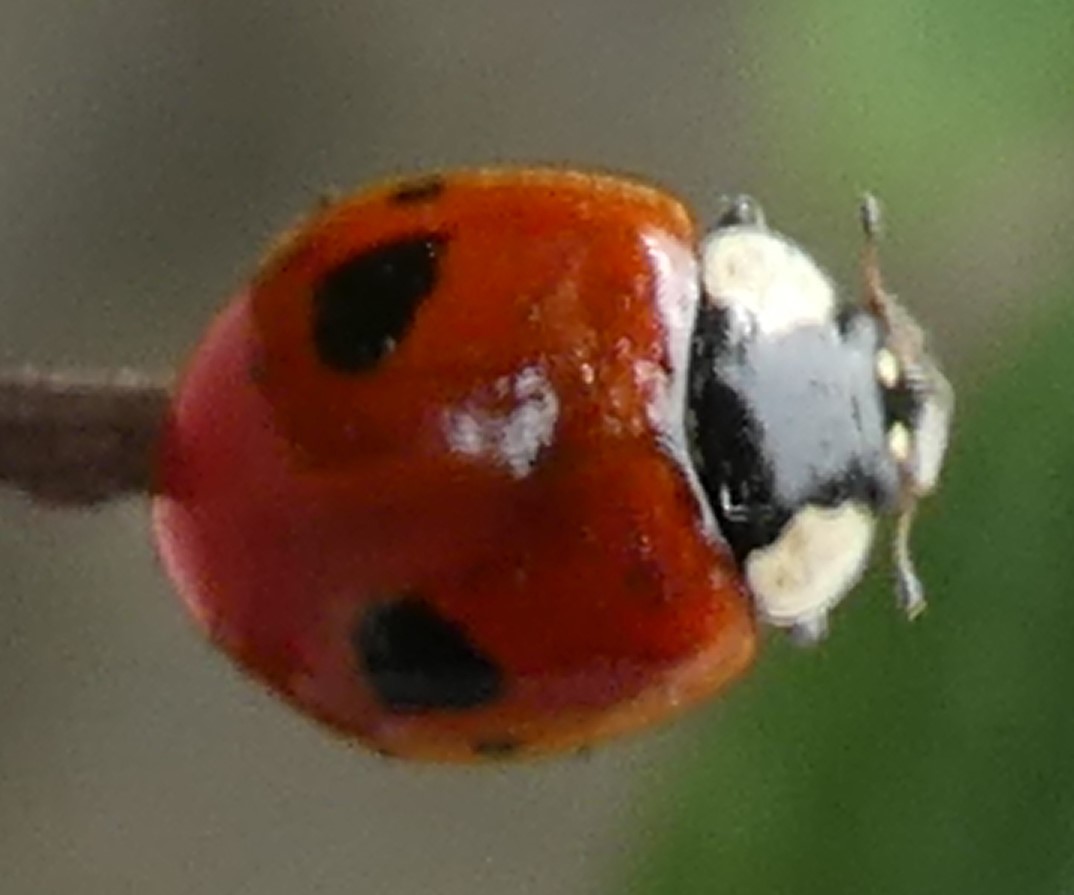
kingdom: Animalia
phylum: Arthropoda
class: Insecta
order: Coleoptera
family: Coccinellidae
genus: Adalia
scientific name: Adalia bipunctata
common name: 2-spot ladybird
